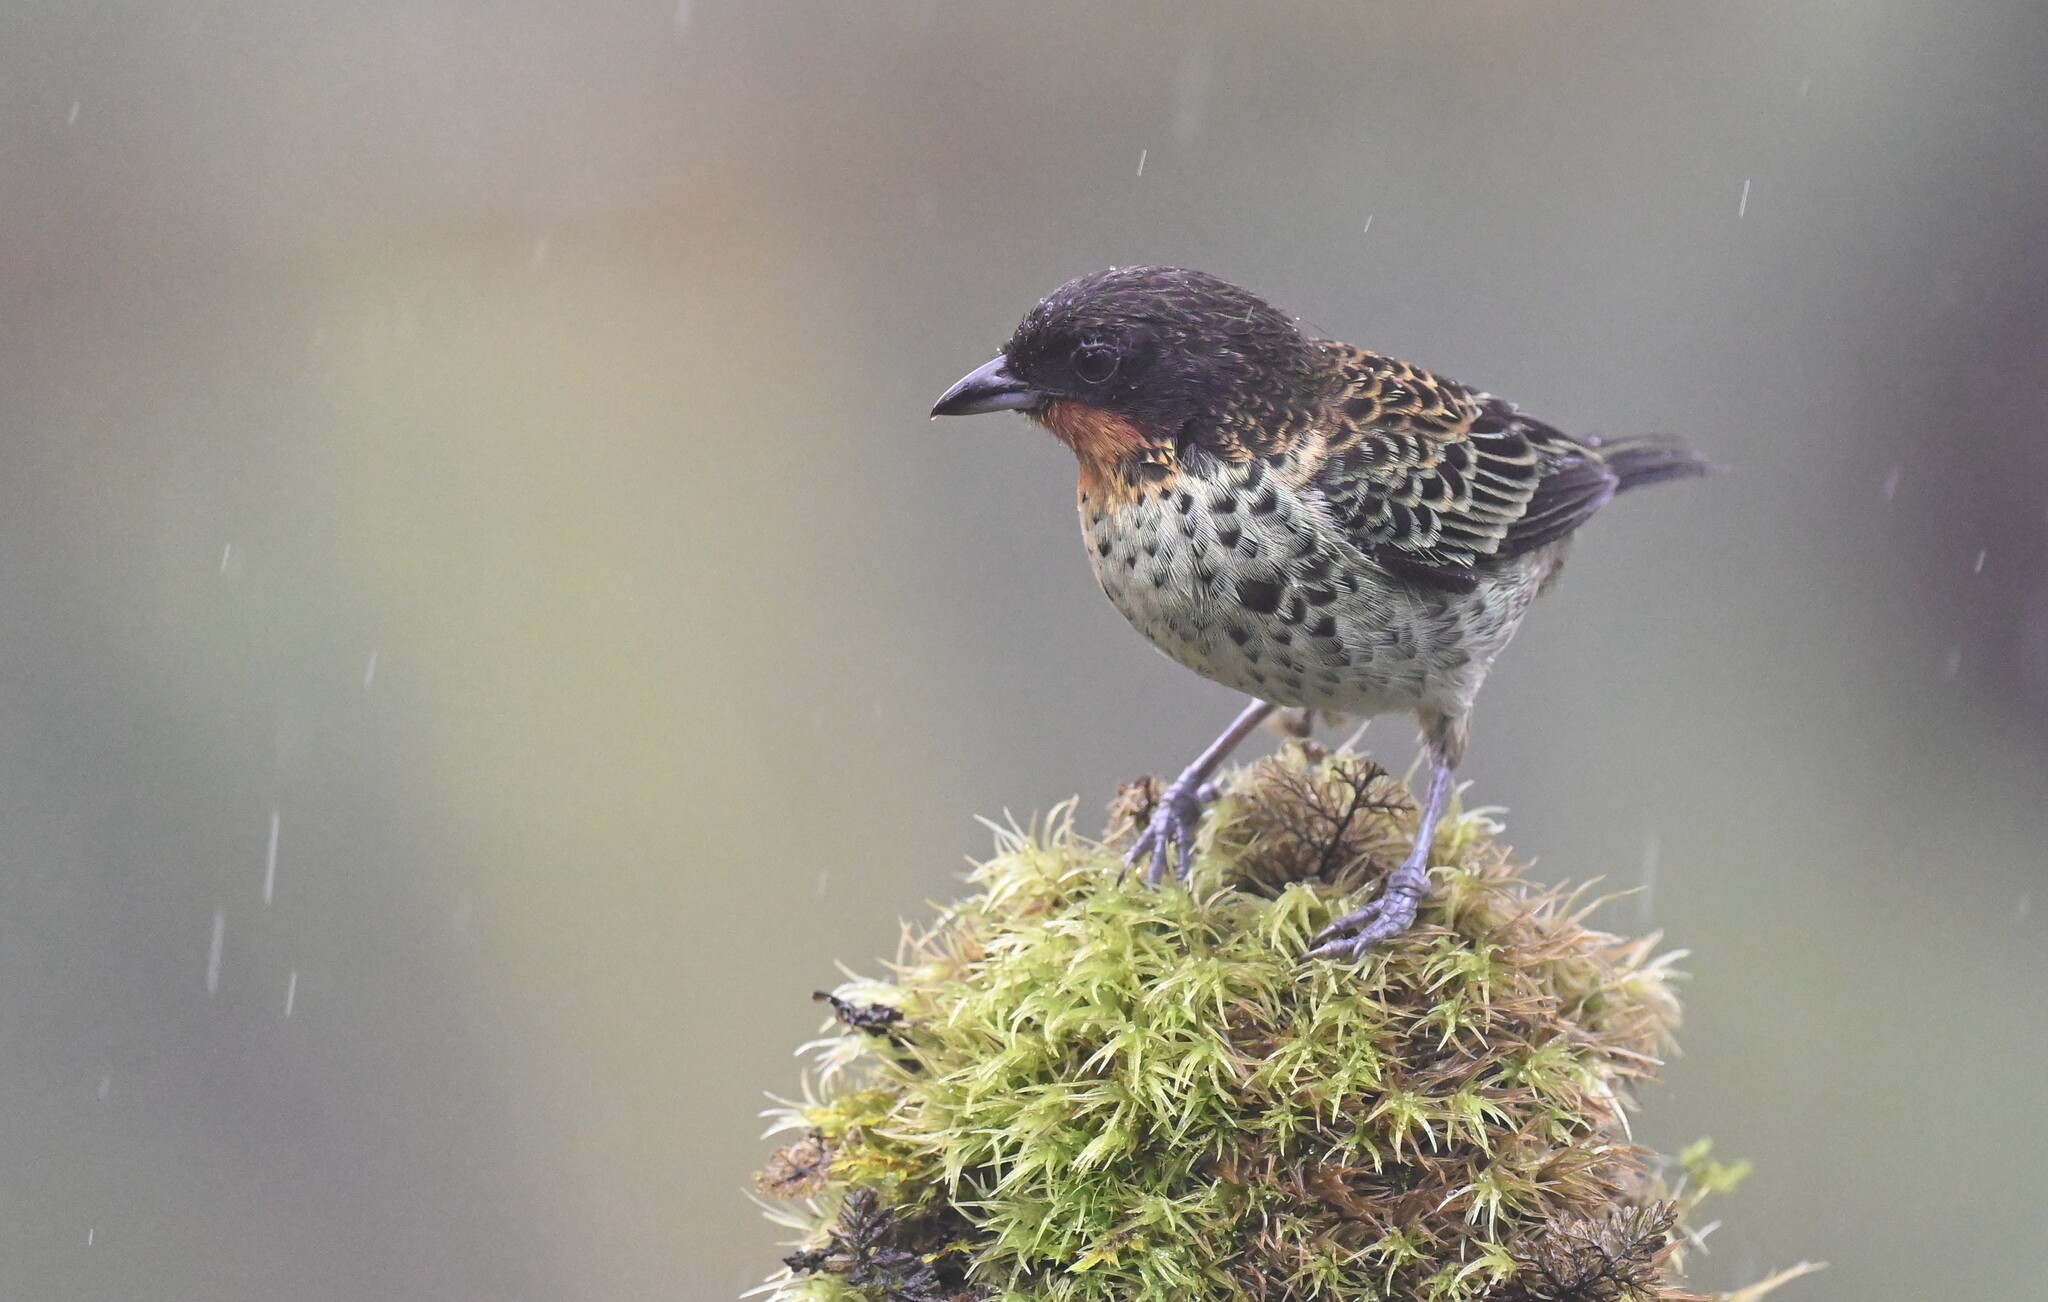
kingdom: Animalia
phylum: Chordata
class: Aves
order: Passeriformes
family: Thraupidae
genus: Ixothraupis
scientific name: Ixothraupis rufigula
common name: Rufous-throated tanager
